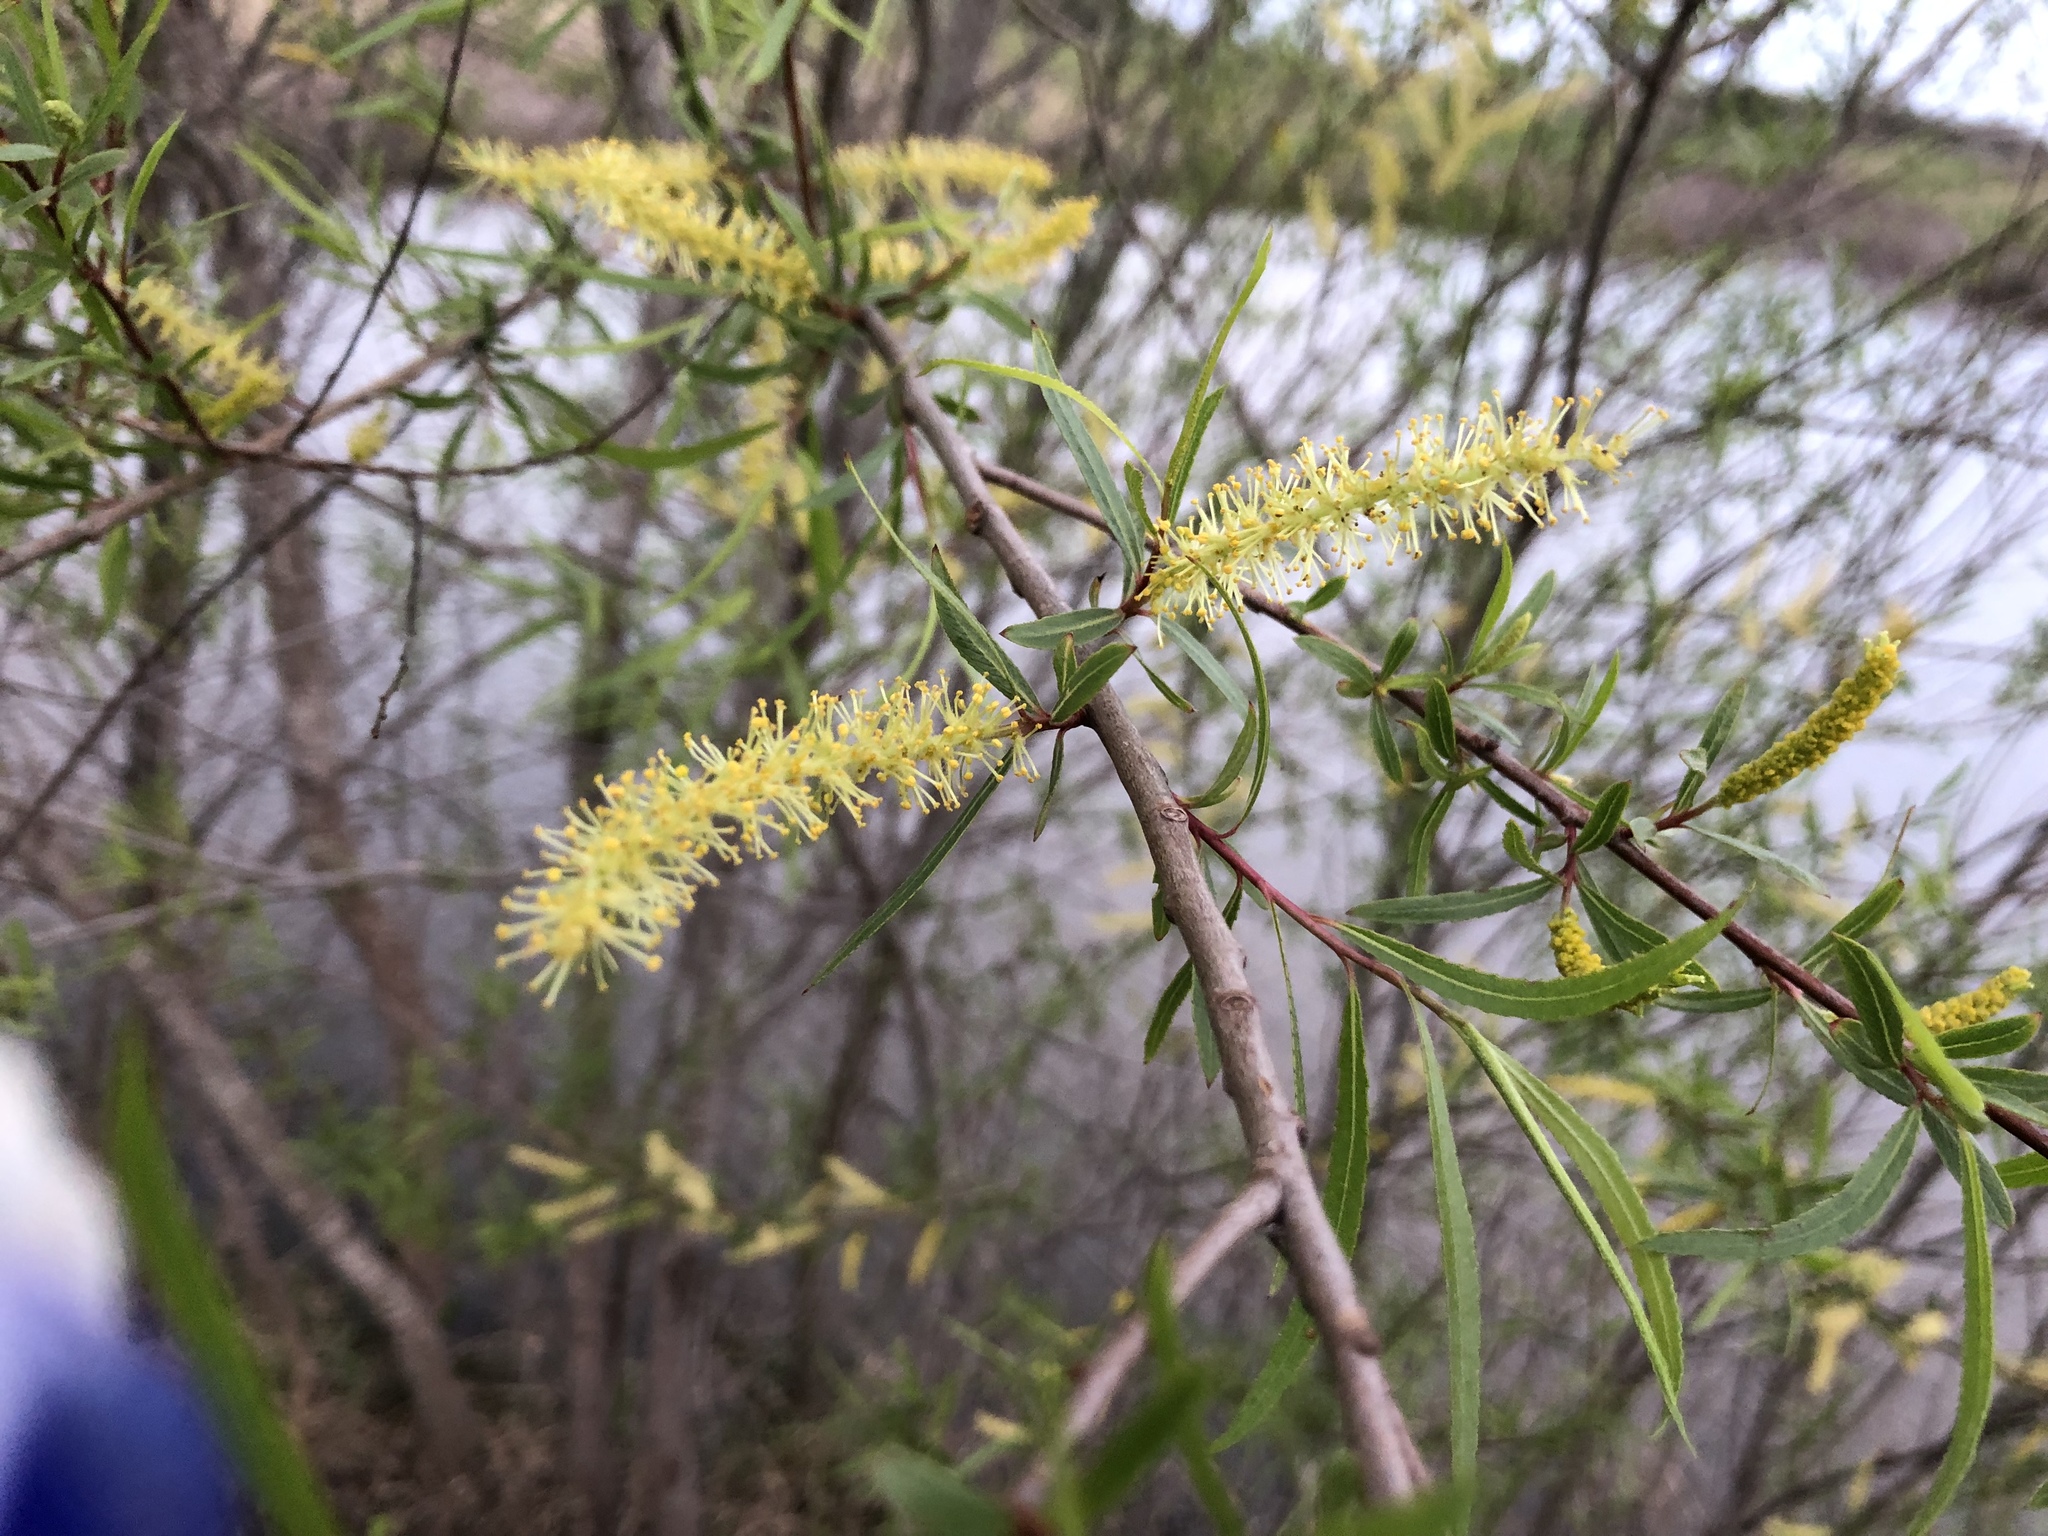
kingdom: Plantae
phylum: Tracheophyta
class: Magnoliopsida
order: Malpighiales
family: Salicaceae
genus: Salix
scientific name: Salix nigra
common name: Black willow
